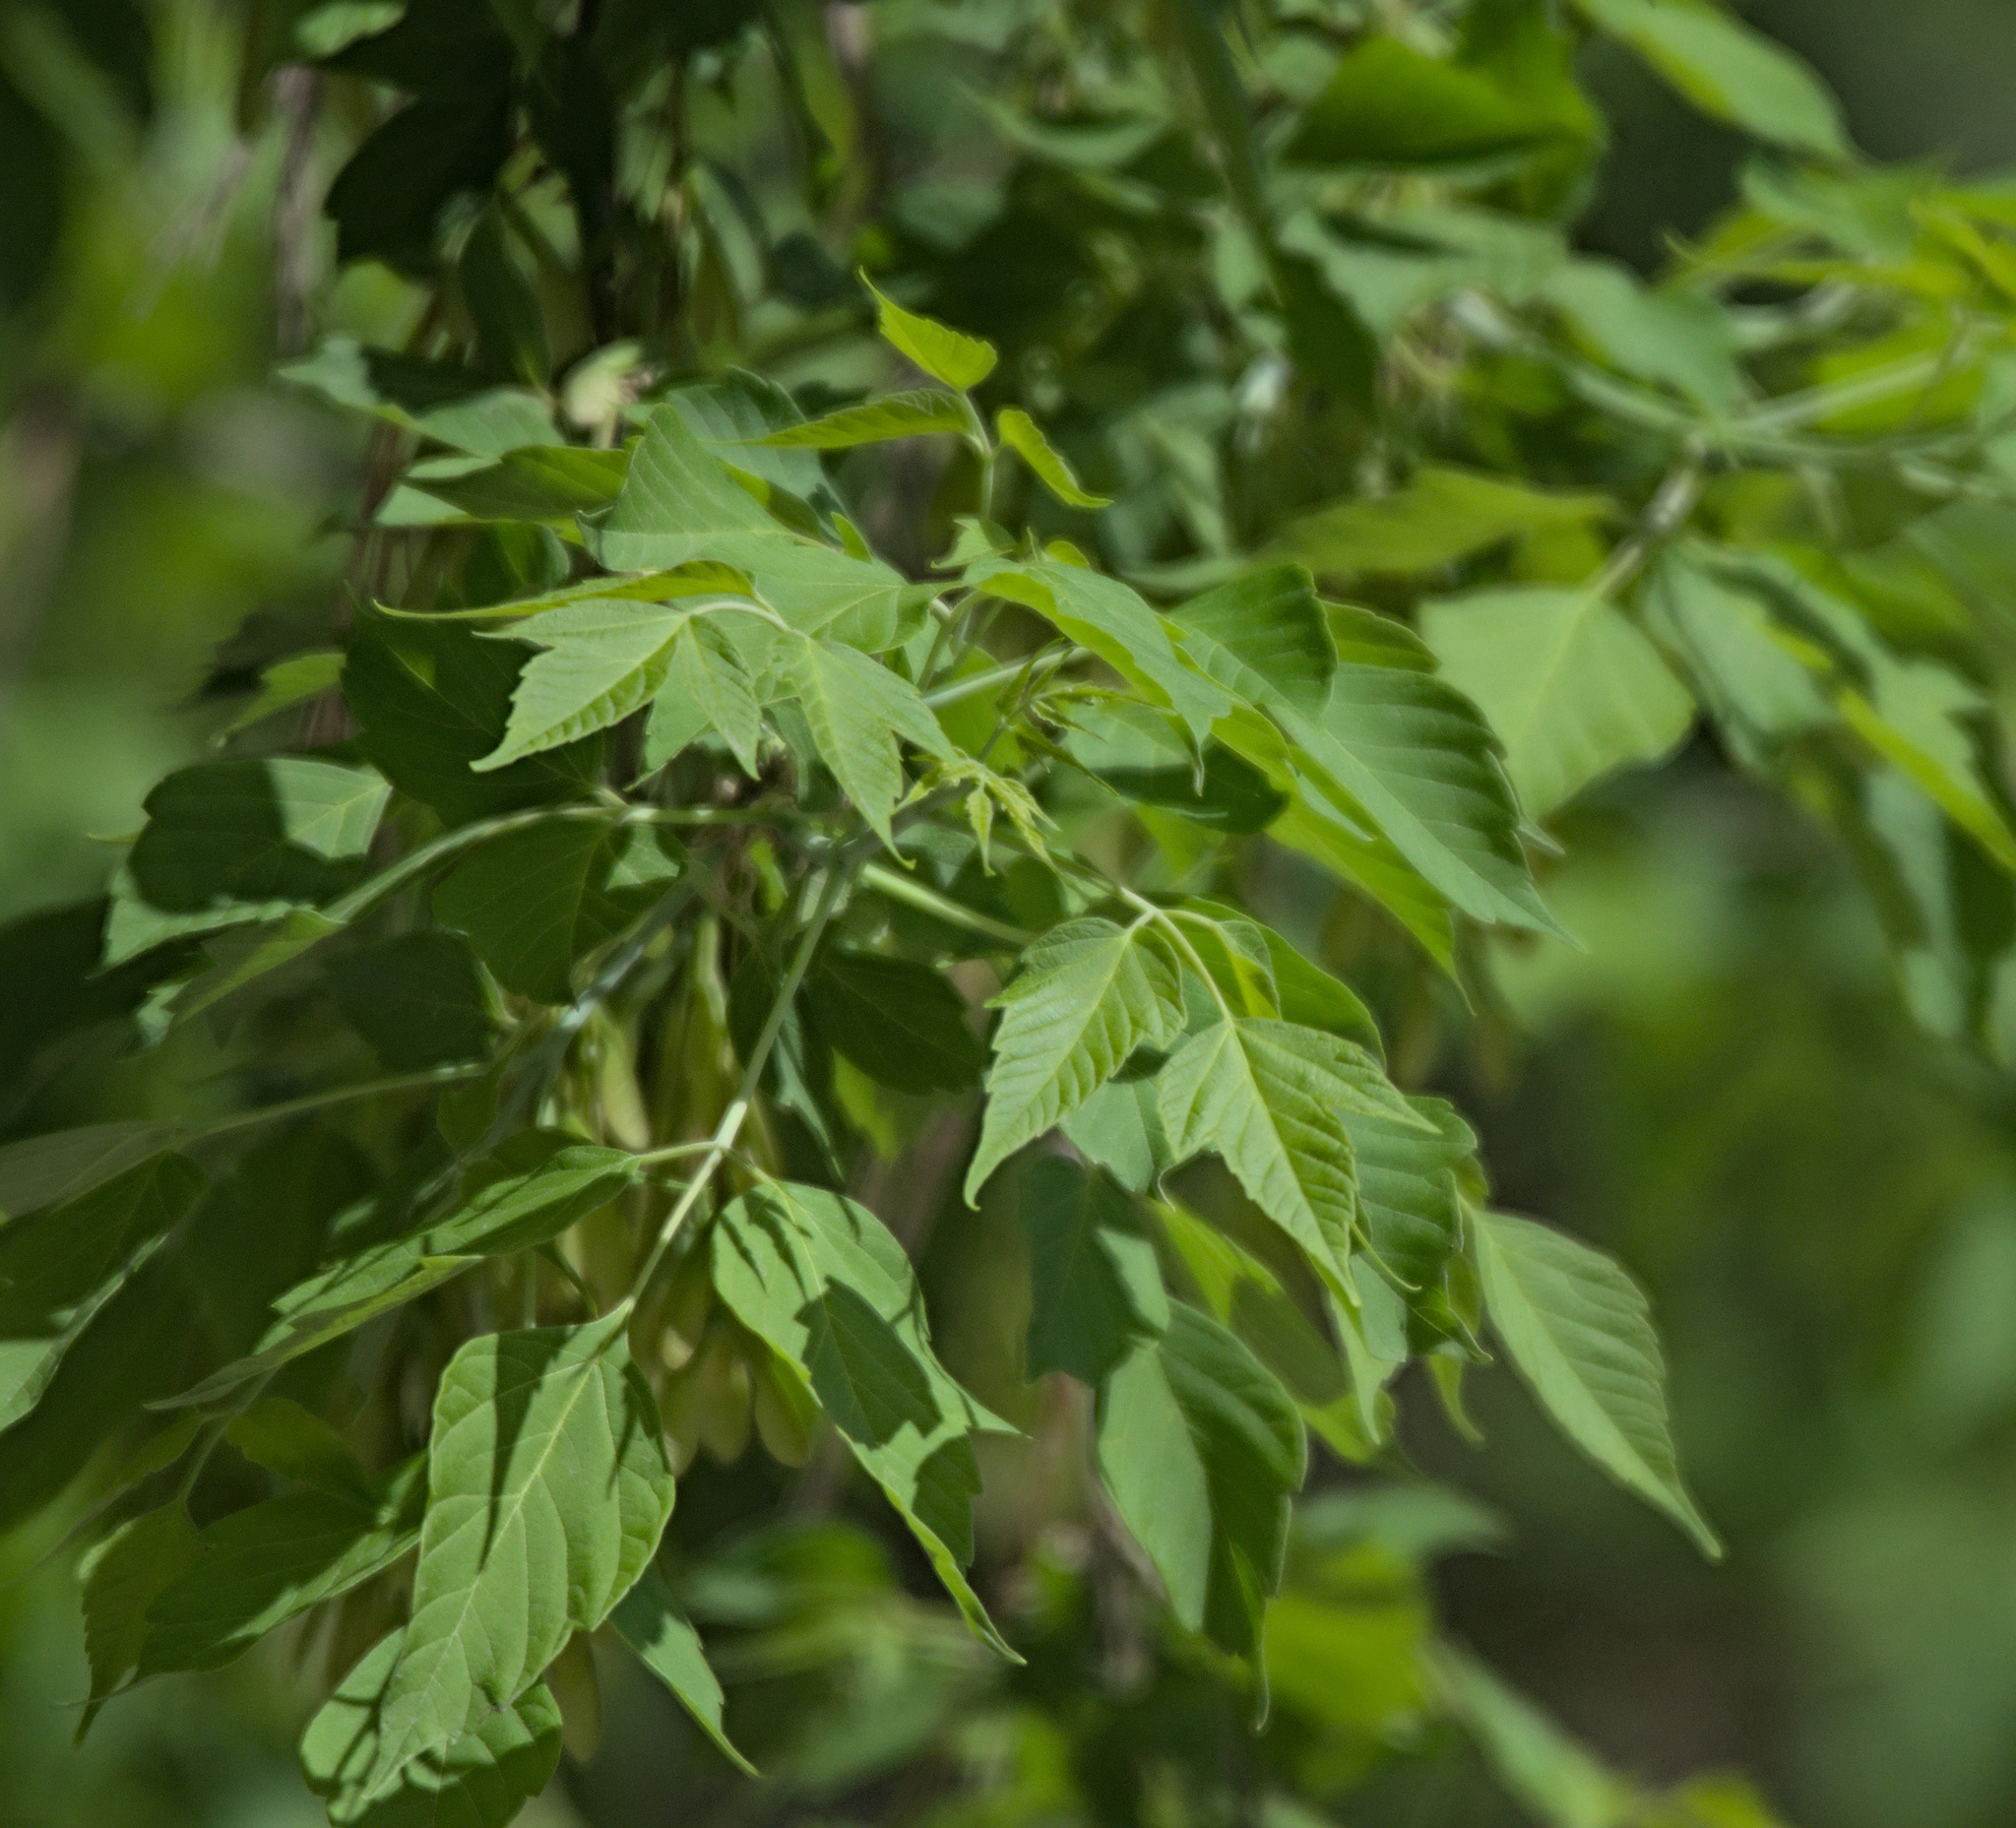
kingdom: Plantae
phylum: Tracheophyta
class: Magnoliopsida
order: Sapindales
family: Sapindaceae
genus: Acer
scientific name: Acer negundo
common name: Ashleaf maple
